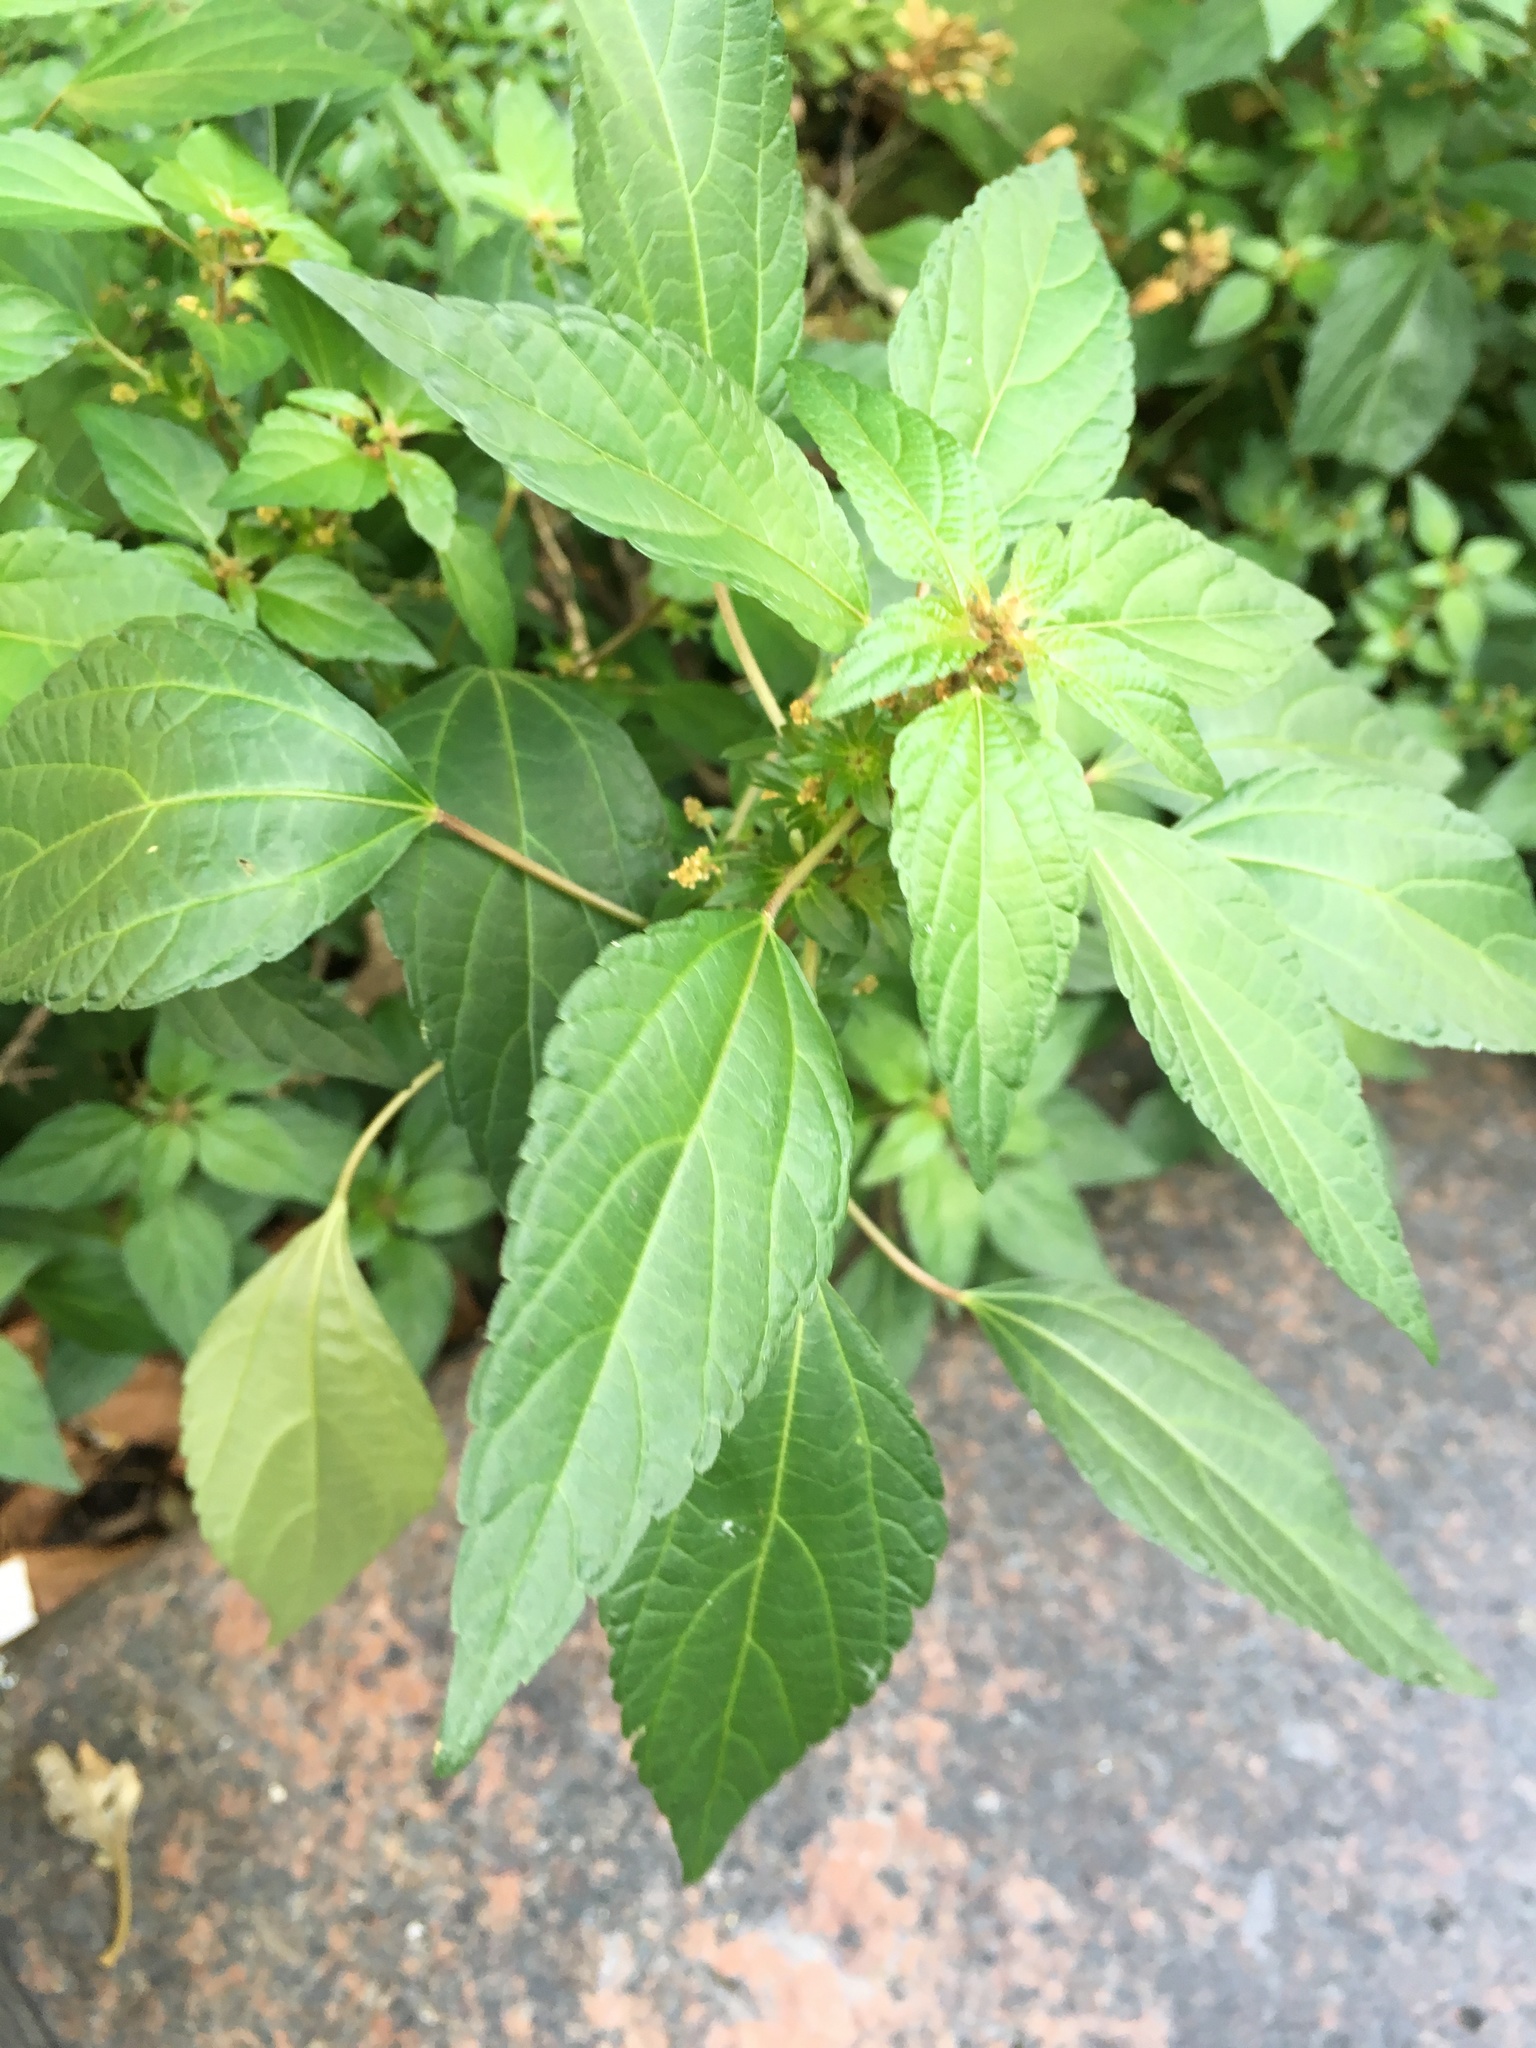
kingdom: Plantae
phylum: Tracheophyta
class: Magnoliopsida
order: Malpighiales
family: Euphorbiaceae
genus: Acalypha
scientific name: Acalypha rhomboidea
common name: Rhombic copperleaf
